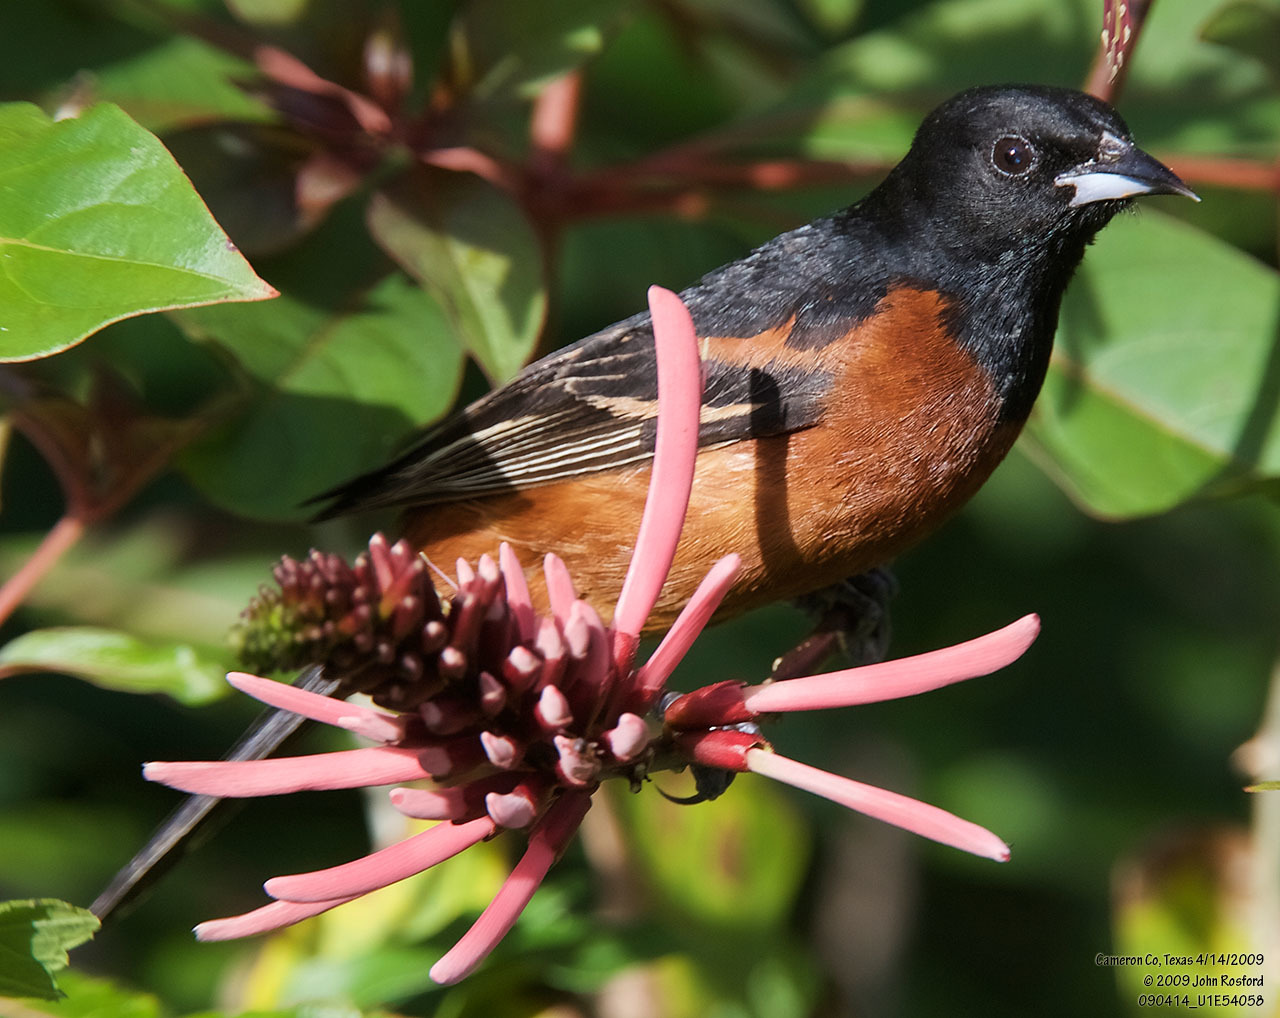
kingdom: Animalia
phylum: Chordata
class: Aves
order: Passeriformes
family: Icteridae
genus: Icterus
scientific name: Icterus spurius
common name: Orchard oriole
